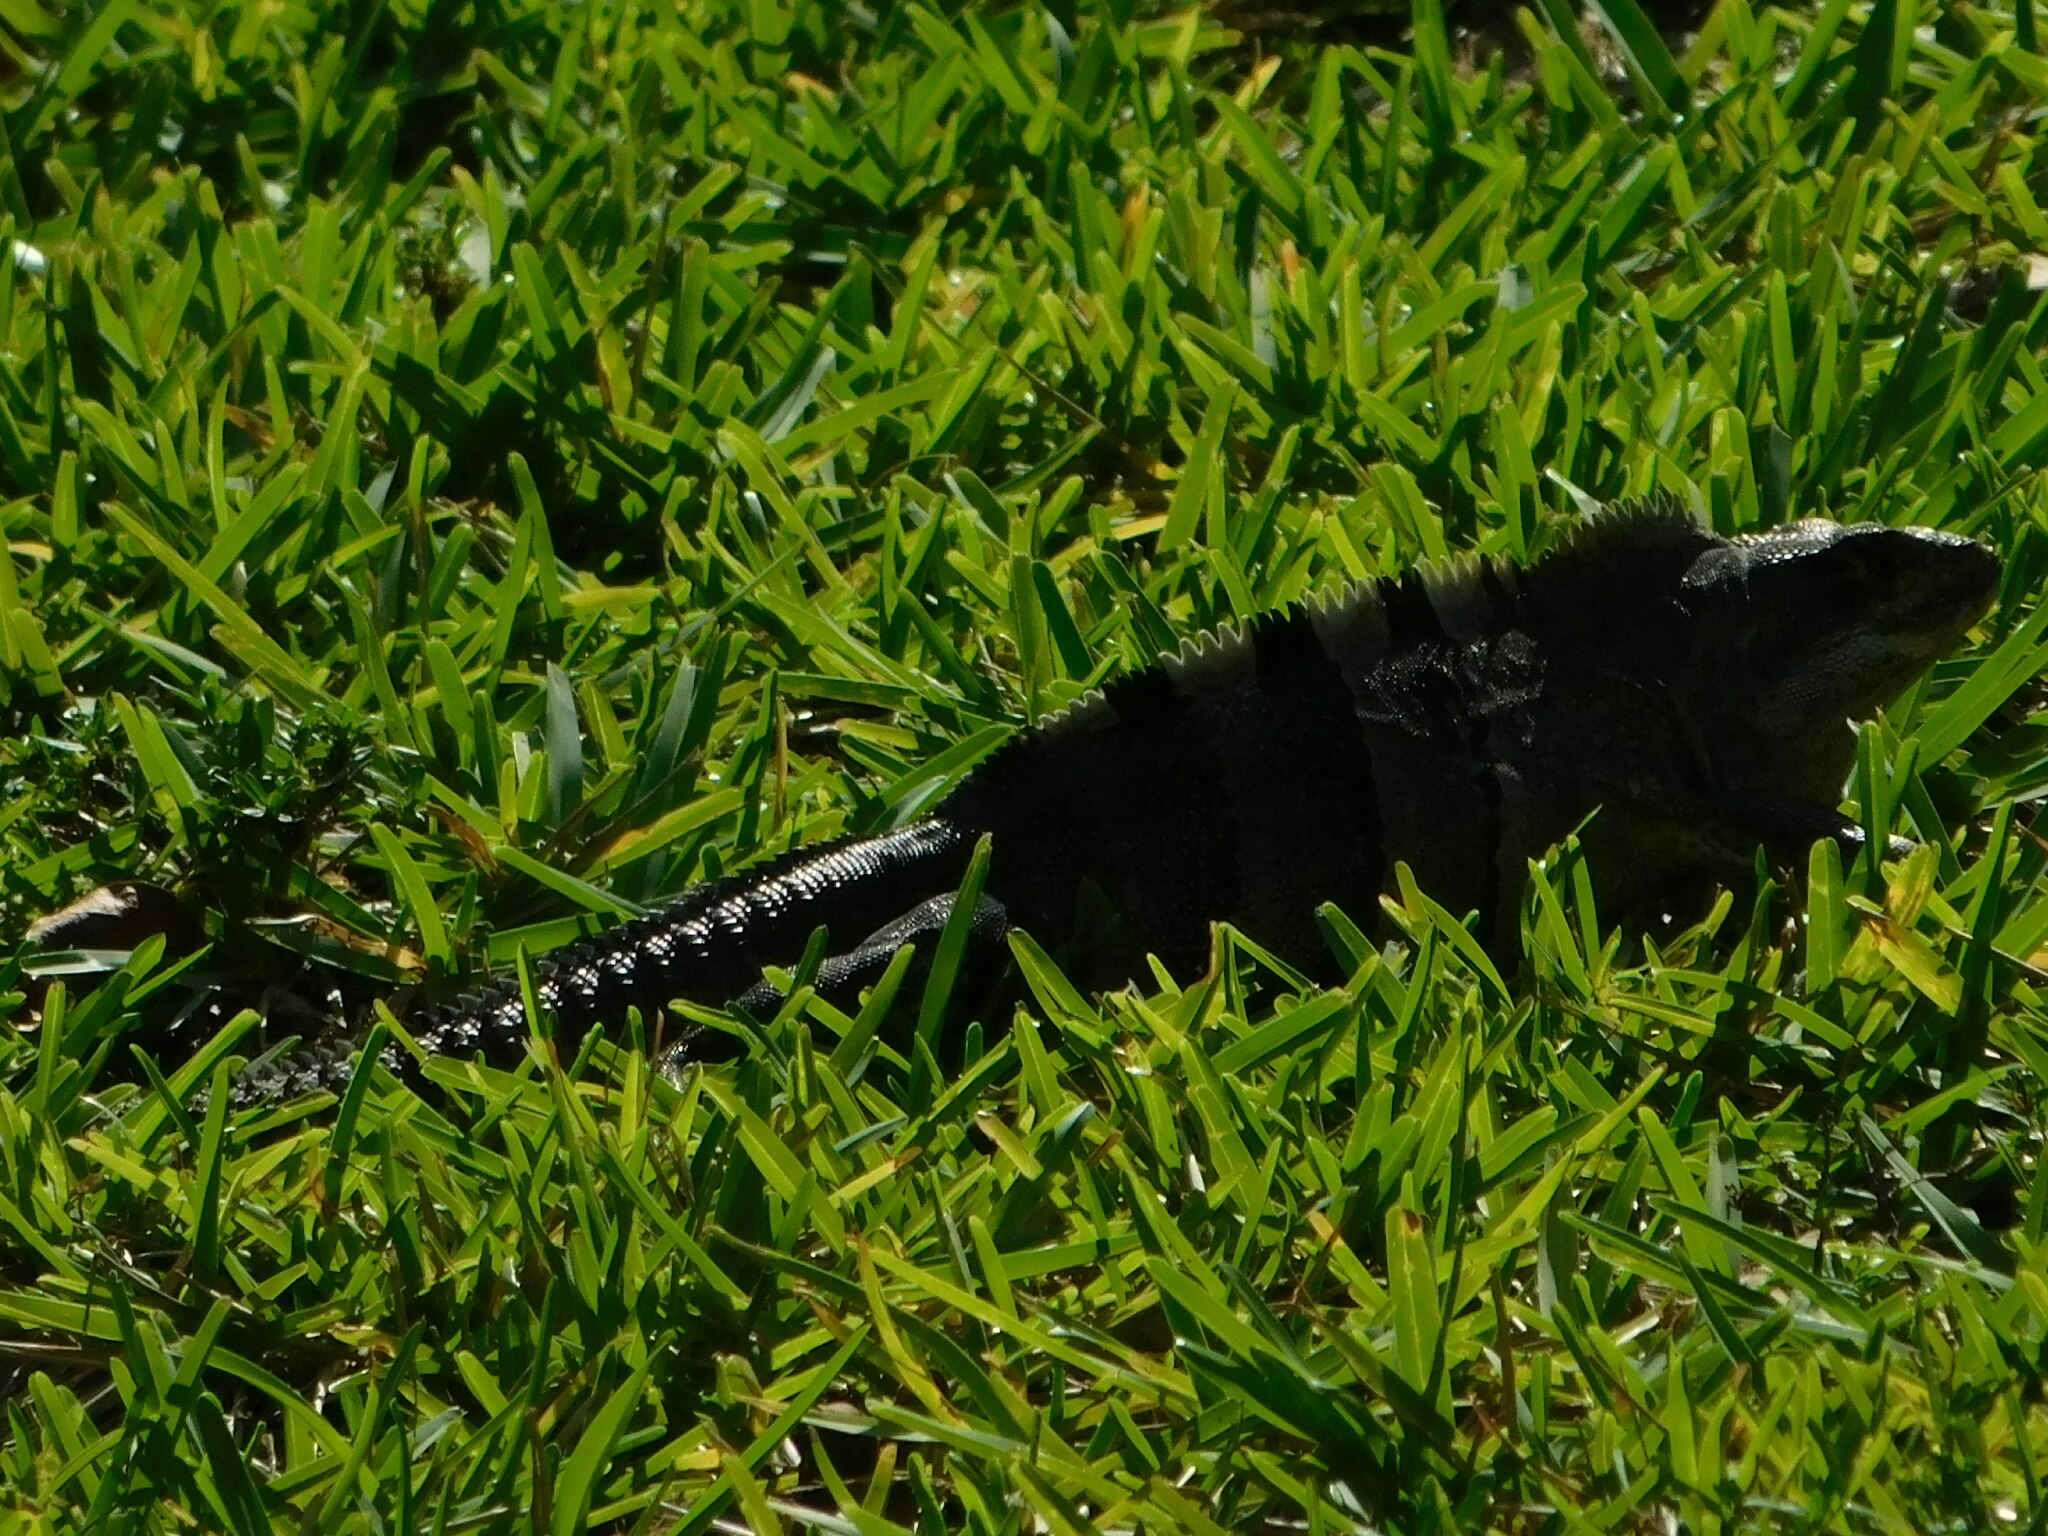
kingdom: Animalia
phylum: Chordata
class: Squamata
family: Iguanidae
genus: Ctenosaura
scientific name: Ctenosaura similis
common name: Black spiny-tailed iguana
